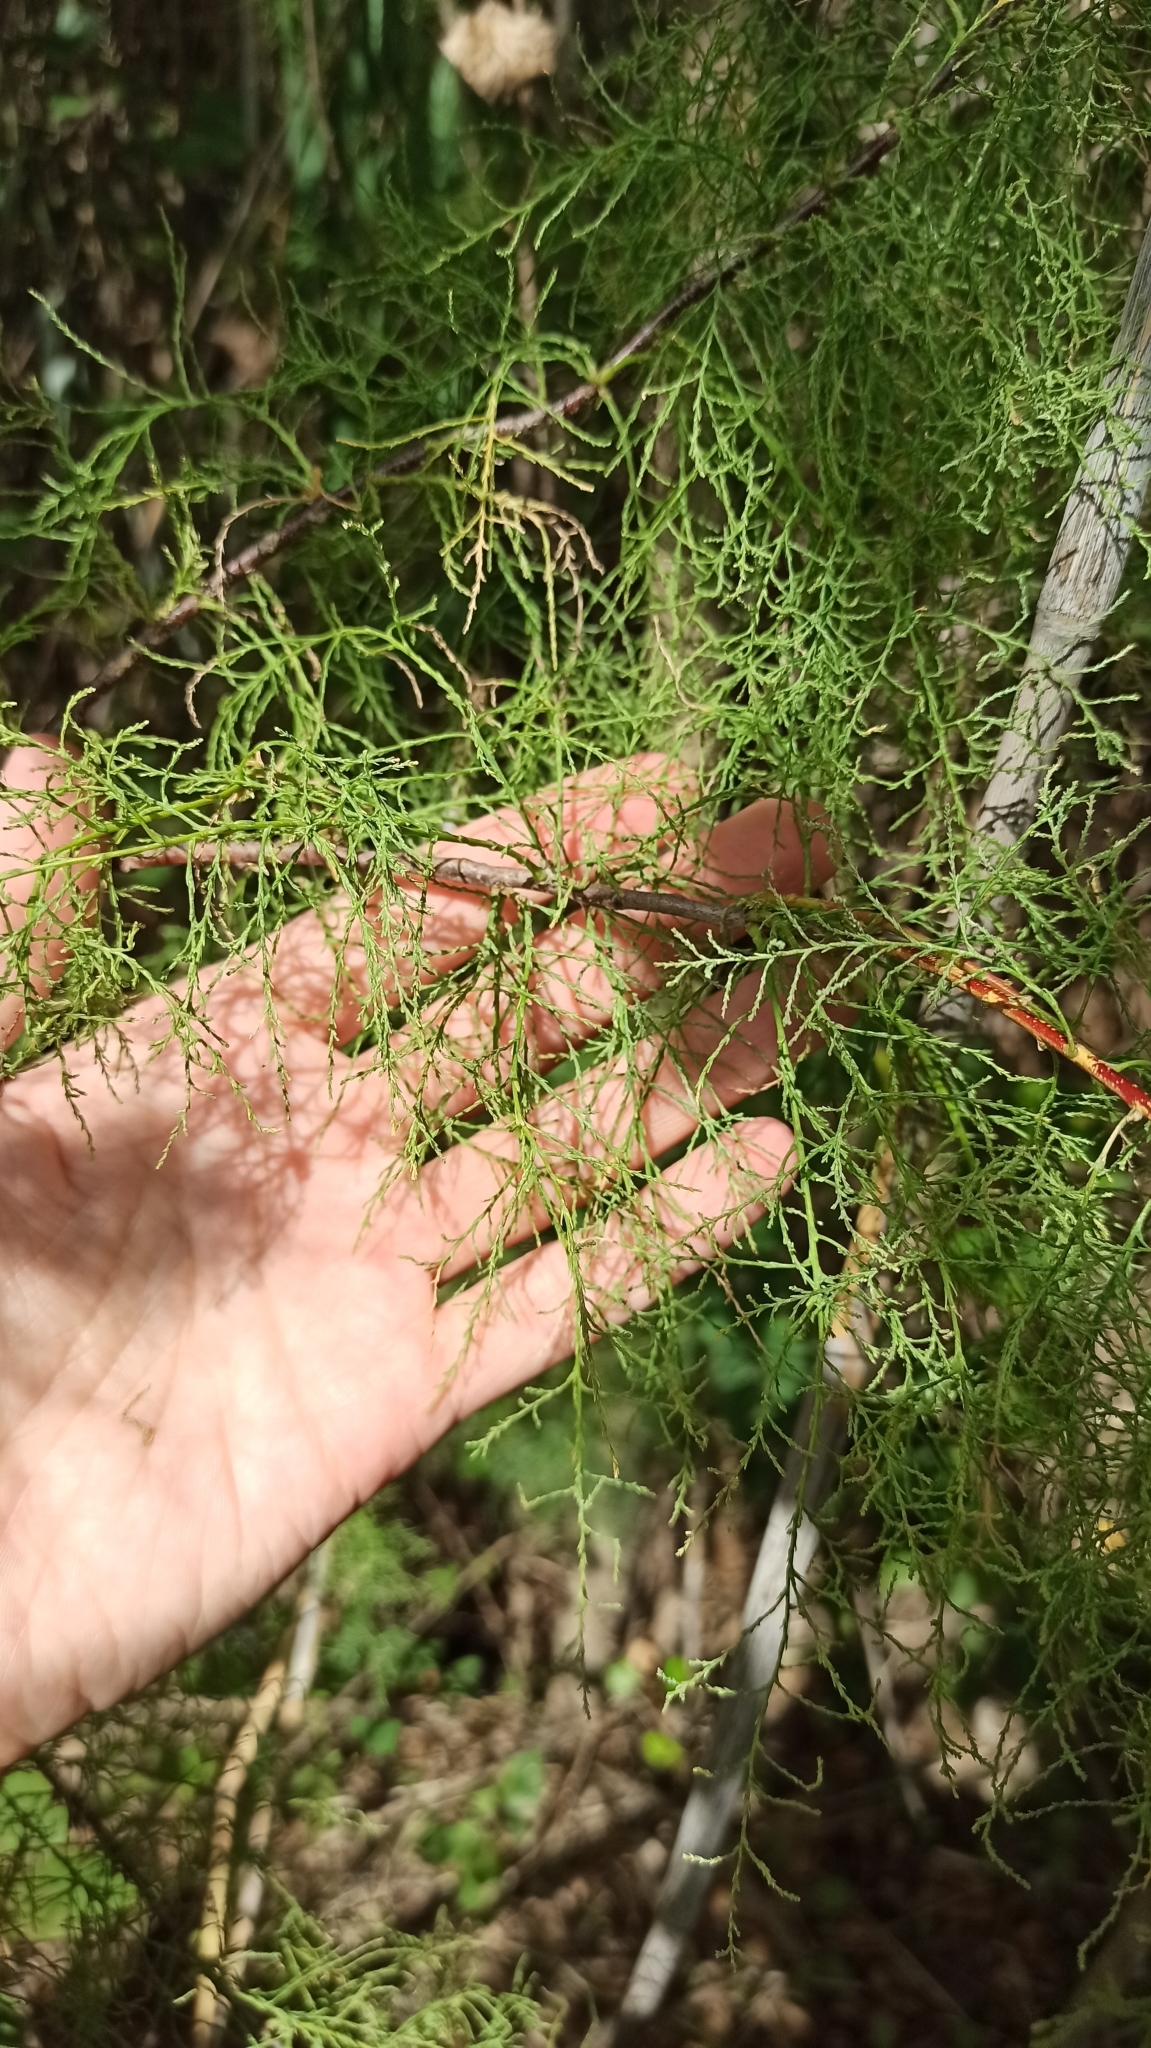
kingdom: Plantae
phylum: Tracheophyta
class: Magnoliopsida
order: Caryophyllales
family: Tamaricaceae
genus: Tamarix
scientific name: Tamarix ramosissima
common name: Pink tamarisk
